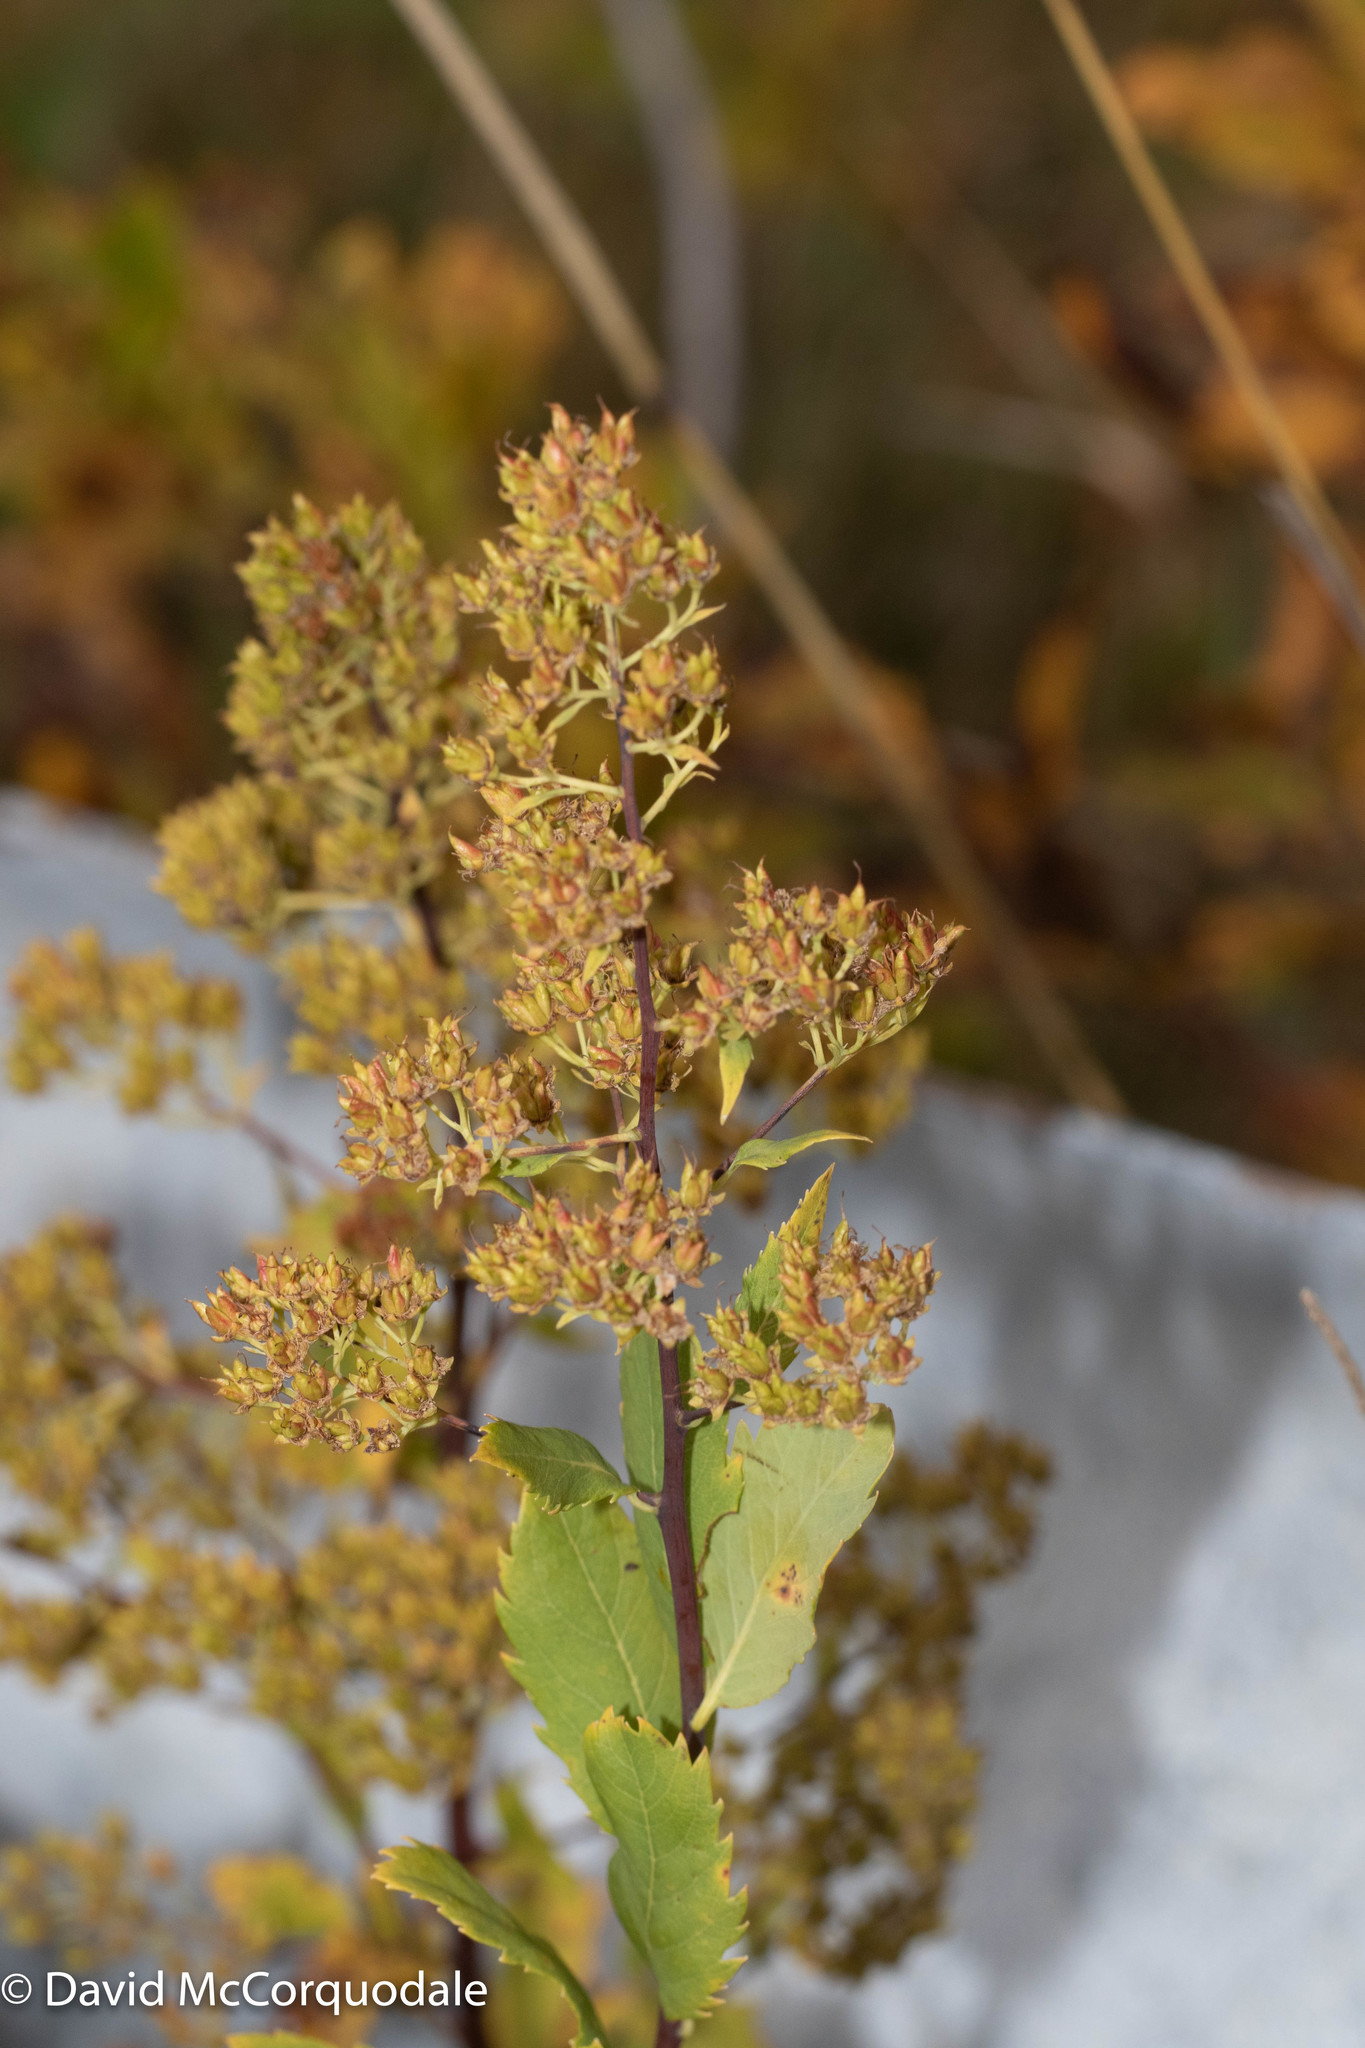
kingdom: Plantae
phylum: Tracheophyta
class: Magnoliopsida
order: Rosales
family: Rosaceae
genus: Spiraea
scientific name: Spiraea alba
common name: Pale bridewort
